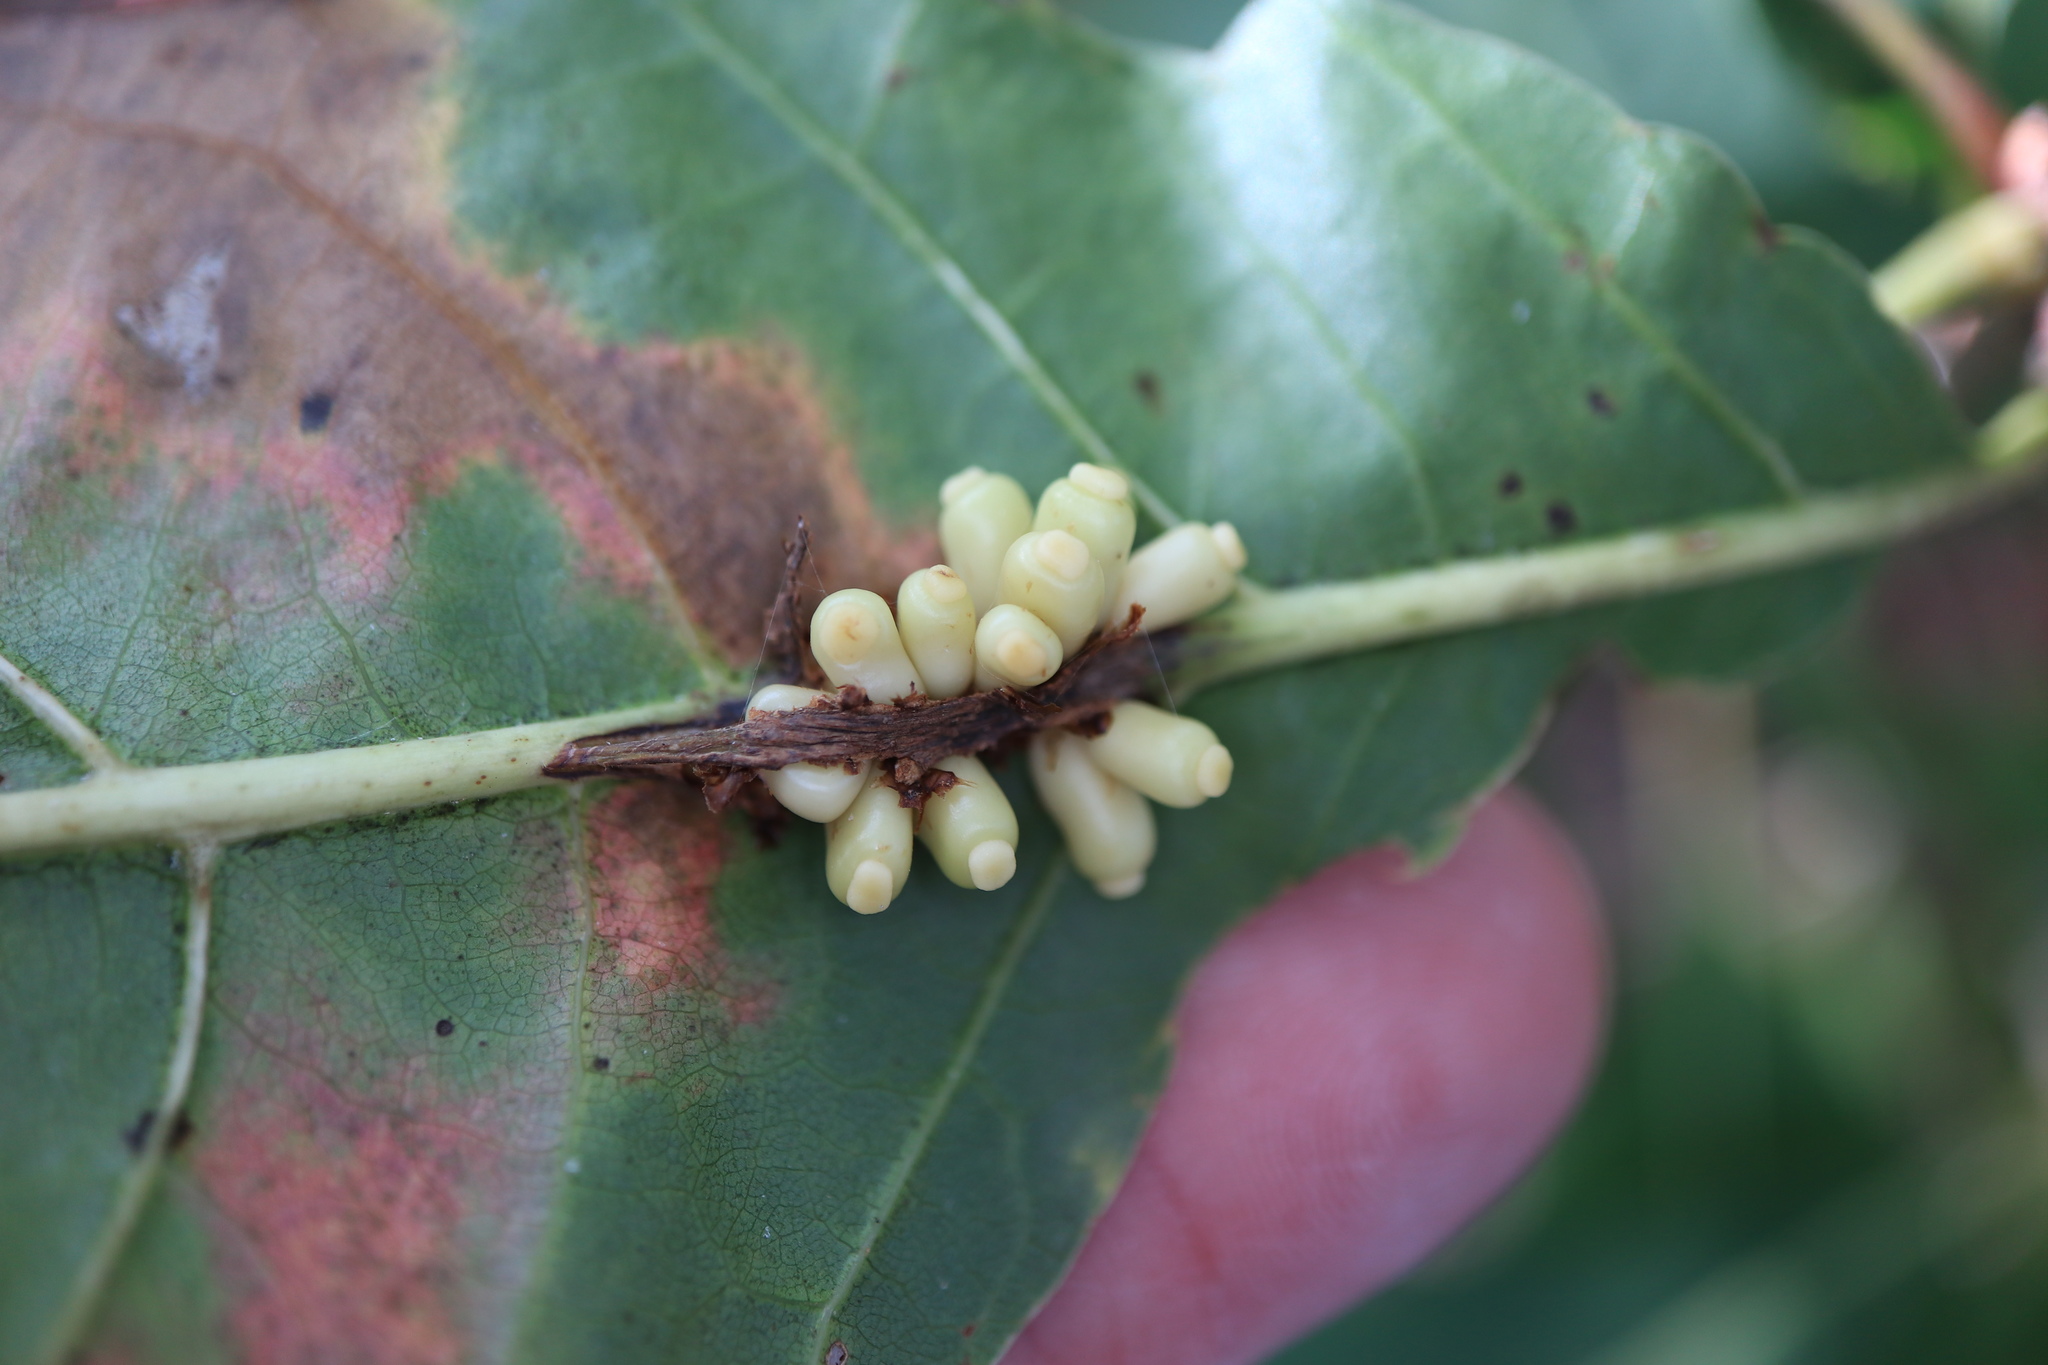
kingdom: Animalia
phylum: Arthropoda
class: Insecta
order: Hymenoptera
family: Cynipidae
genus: Kokkocynips
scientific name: Kokkocynips decidua
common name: Oak wheat gall
